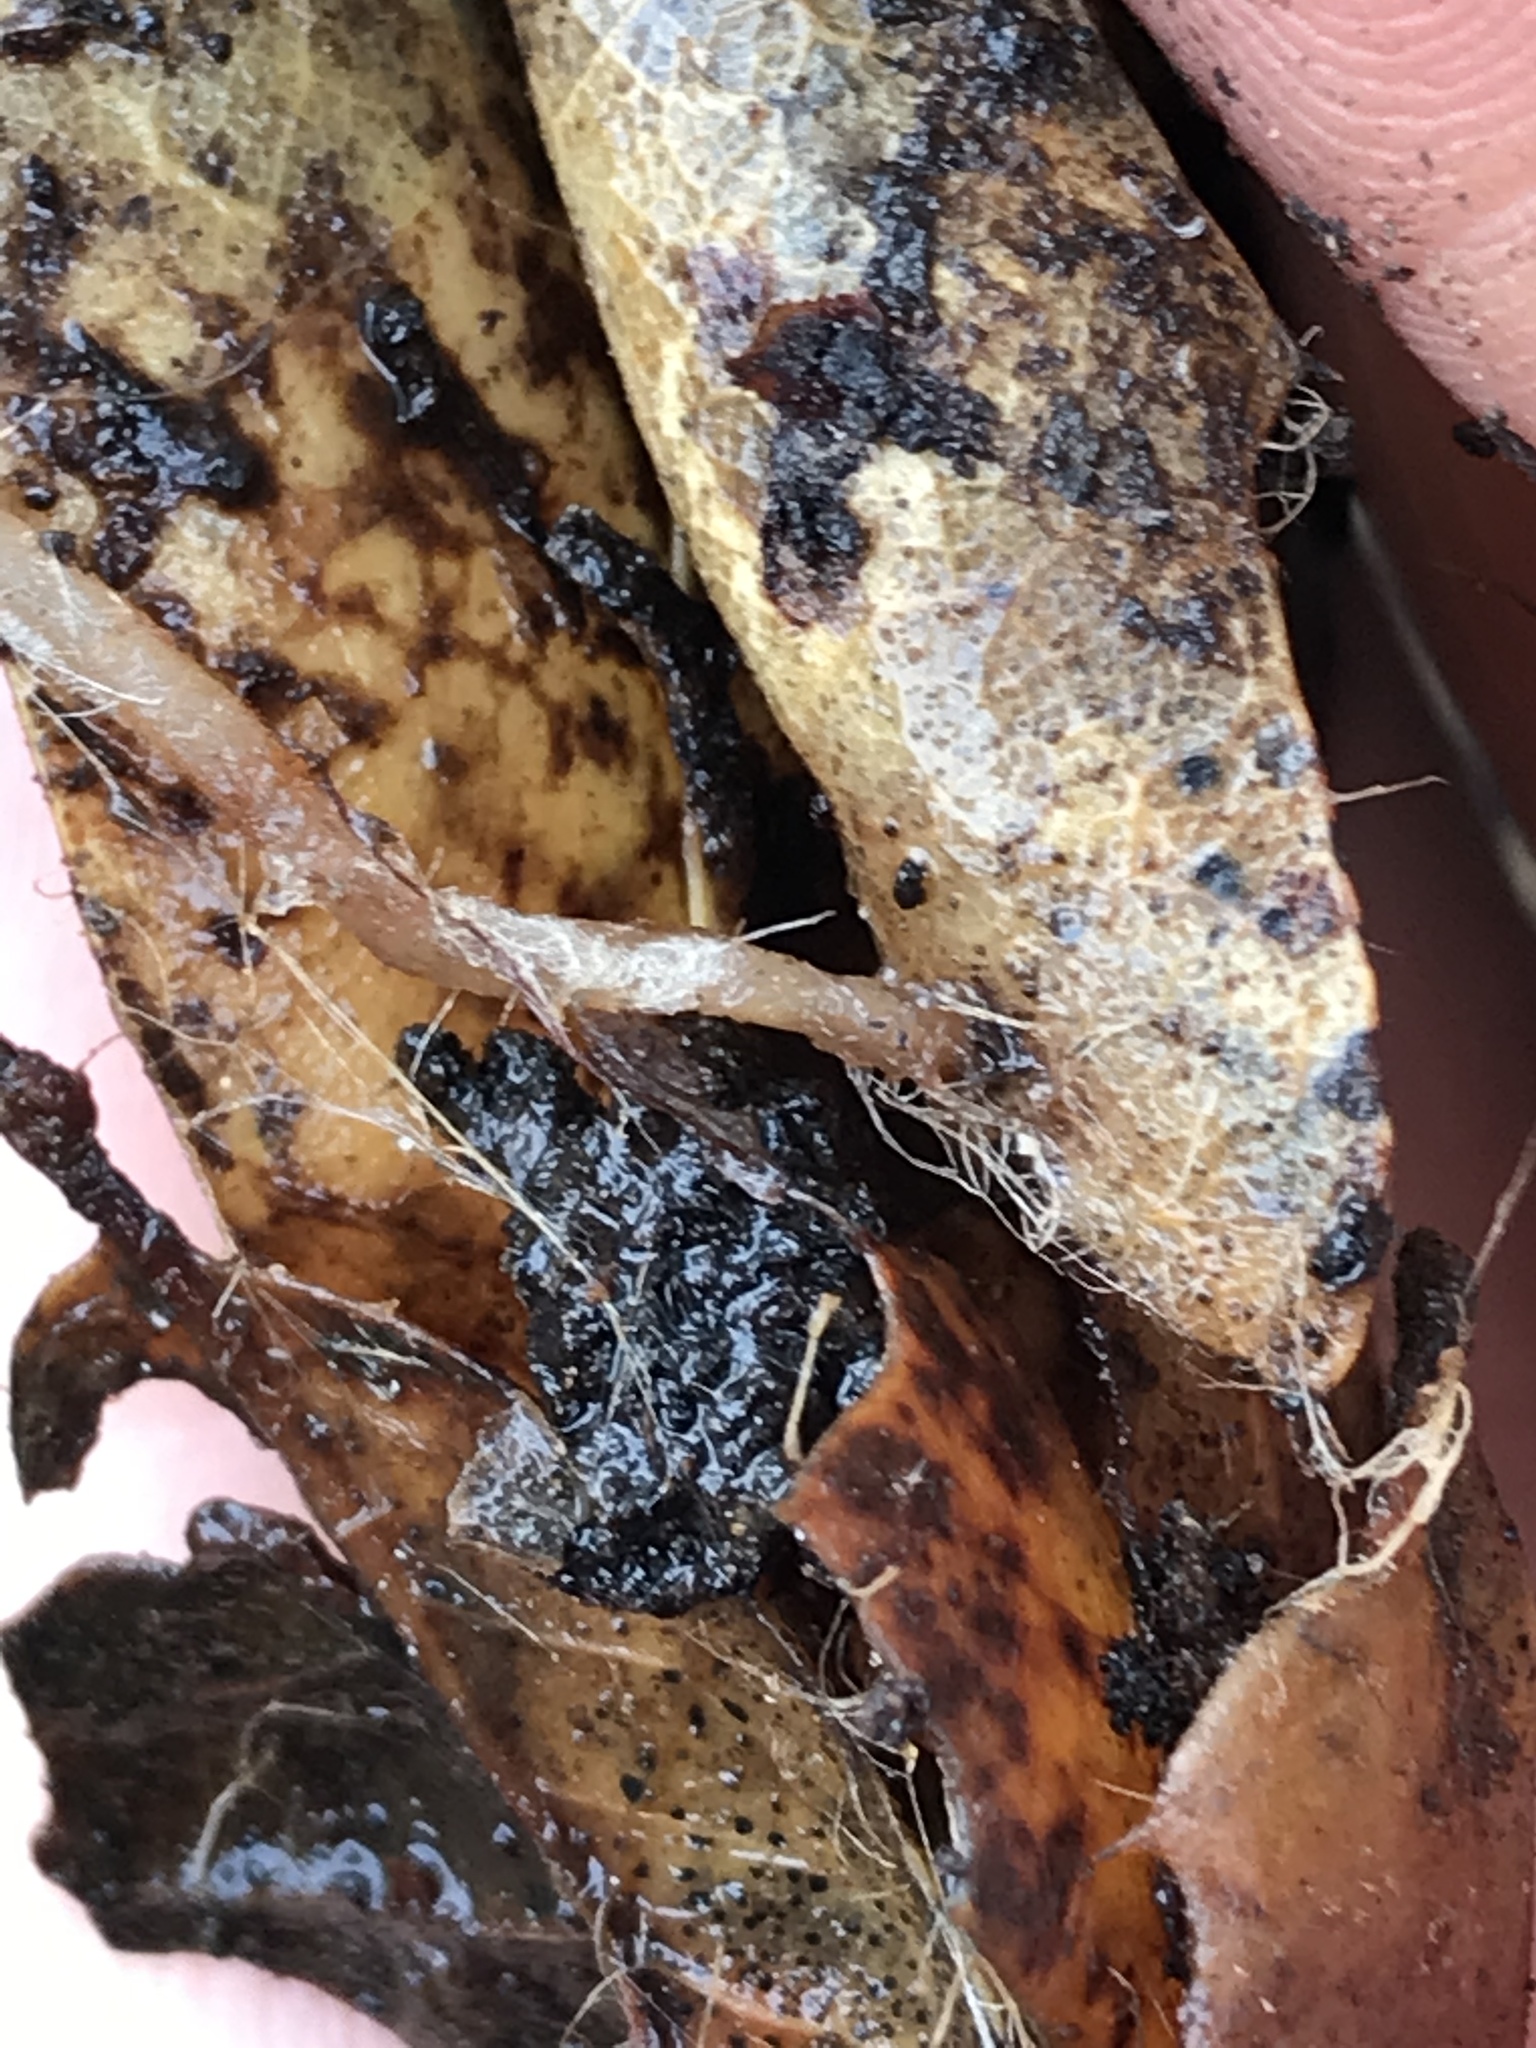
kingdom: Fungi
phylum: Basidiomycota
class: Agaricomycetes
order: Agaricales
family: Mycenaceae
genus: Mycena
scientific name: Mycena
